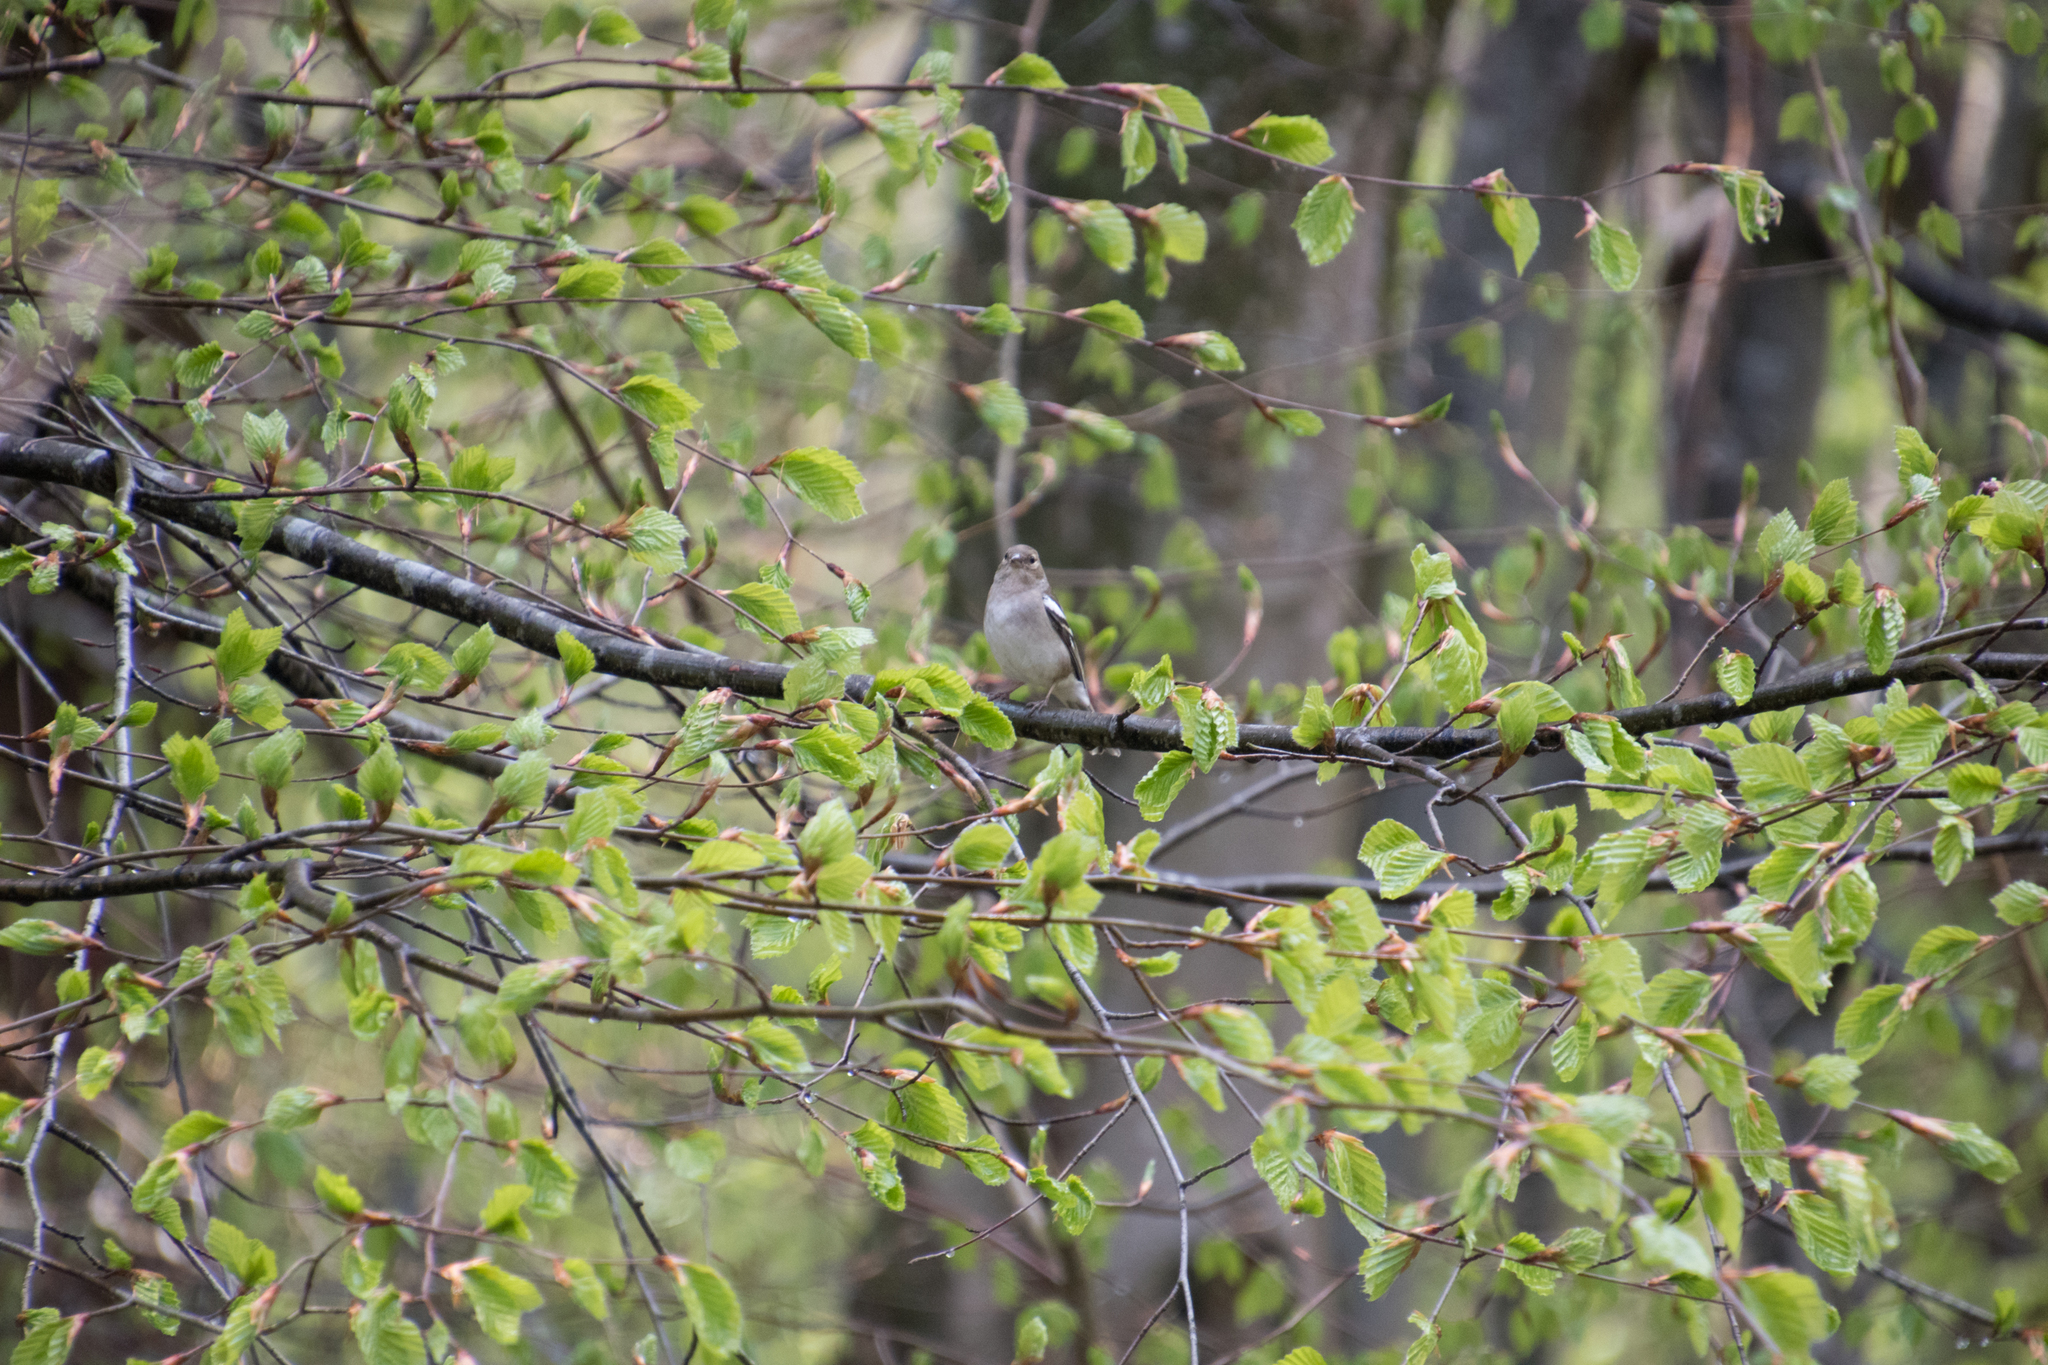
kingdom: Animalia
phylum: Chordata
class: Aves
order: Passeriformes
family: Fringillidae
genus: Fringilla
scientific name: Fringilla coelebs
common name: Common chaffinch
